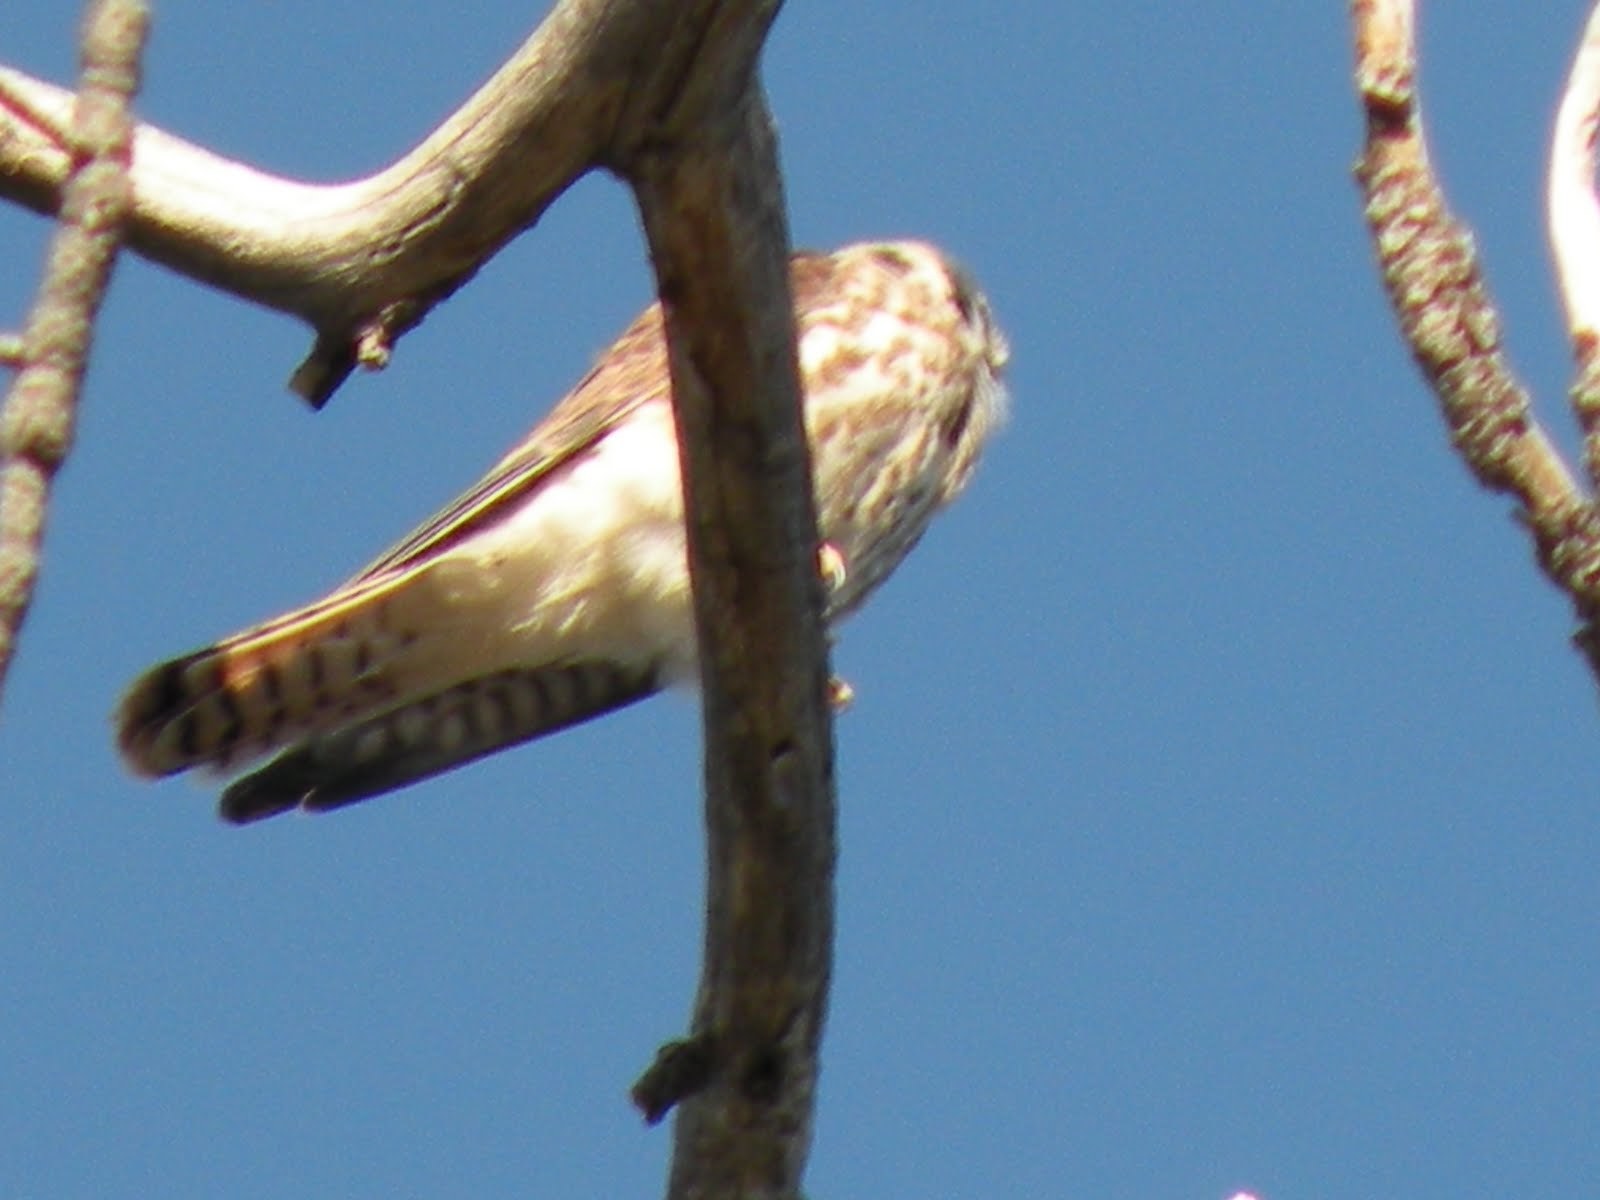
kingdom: Animalia
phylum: Chordata
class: Aves
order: Falconiformes
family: Falconidae
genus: Falco
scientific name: Falco sparverius
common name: American kestrel
